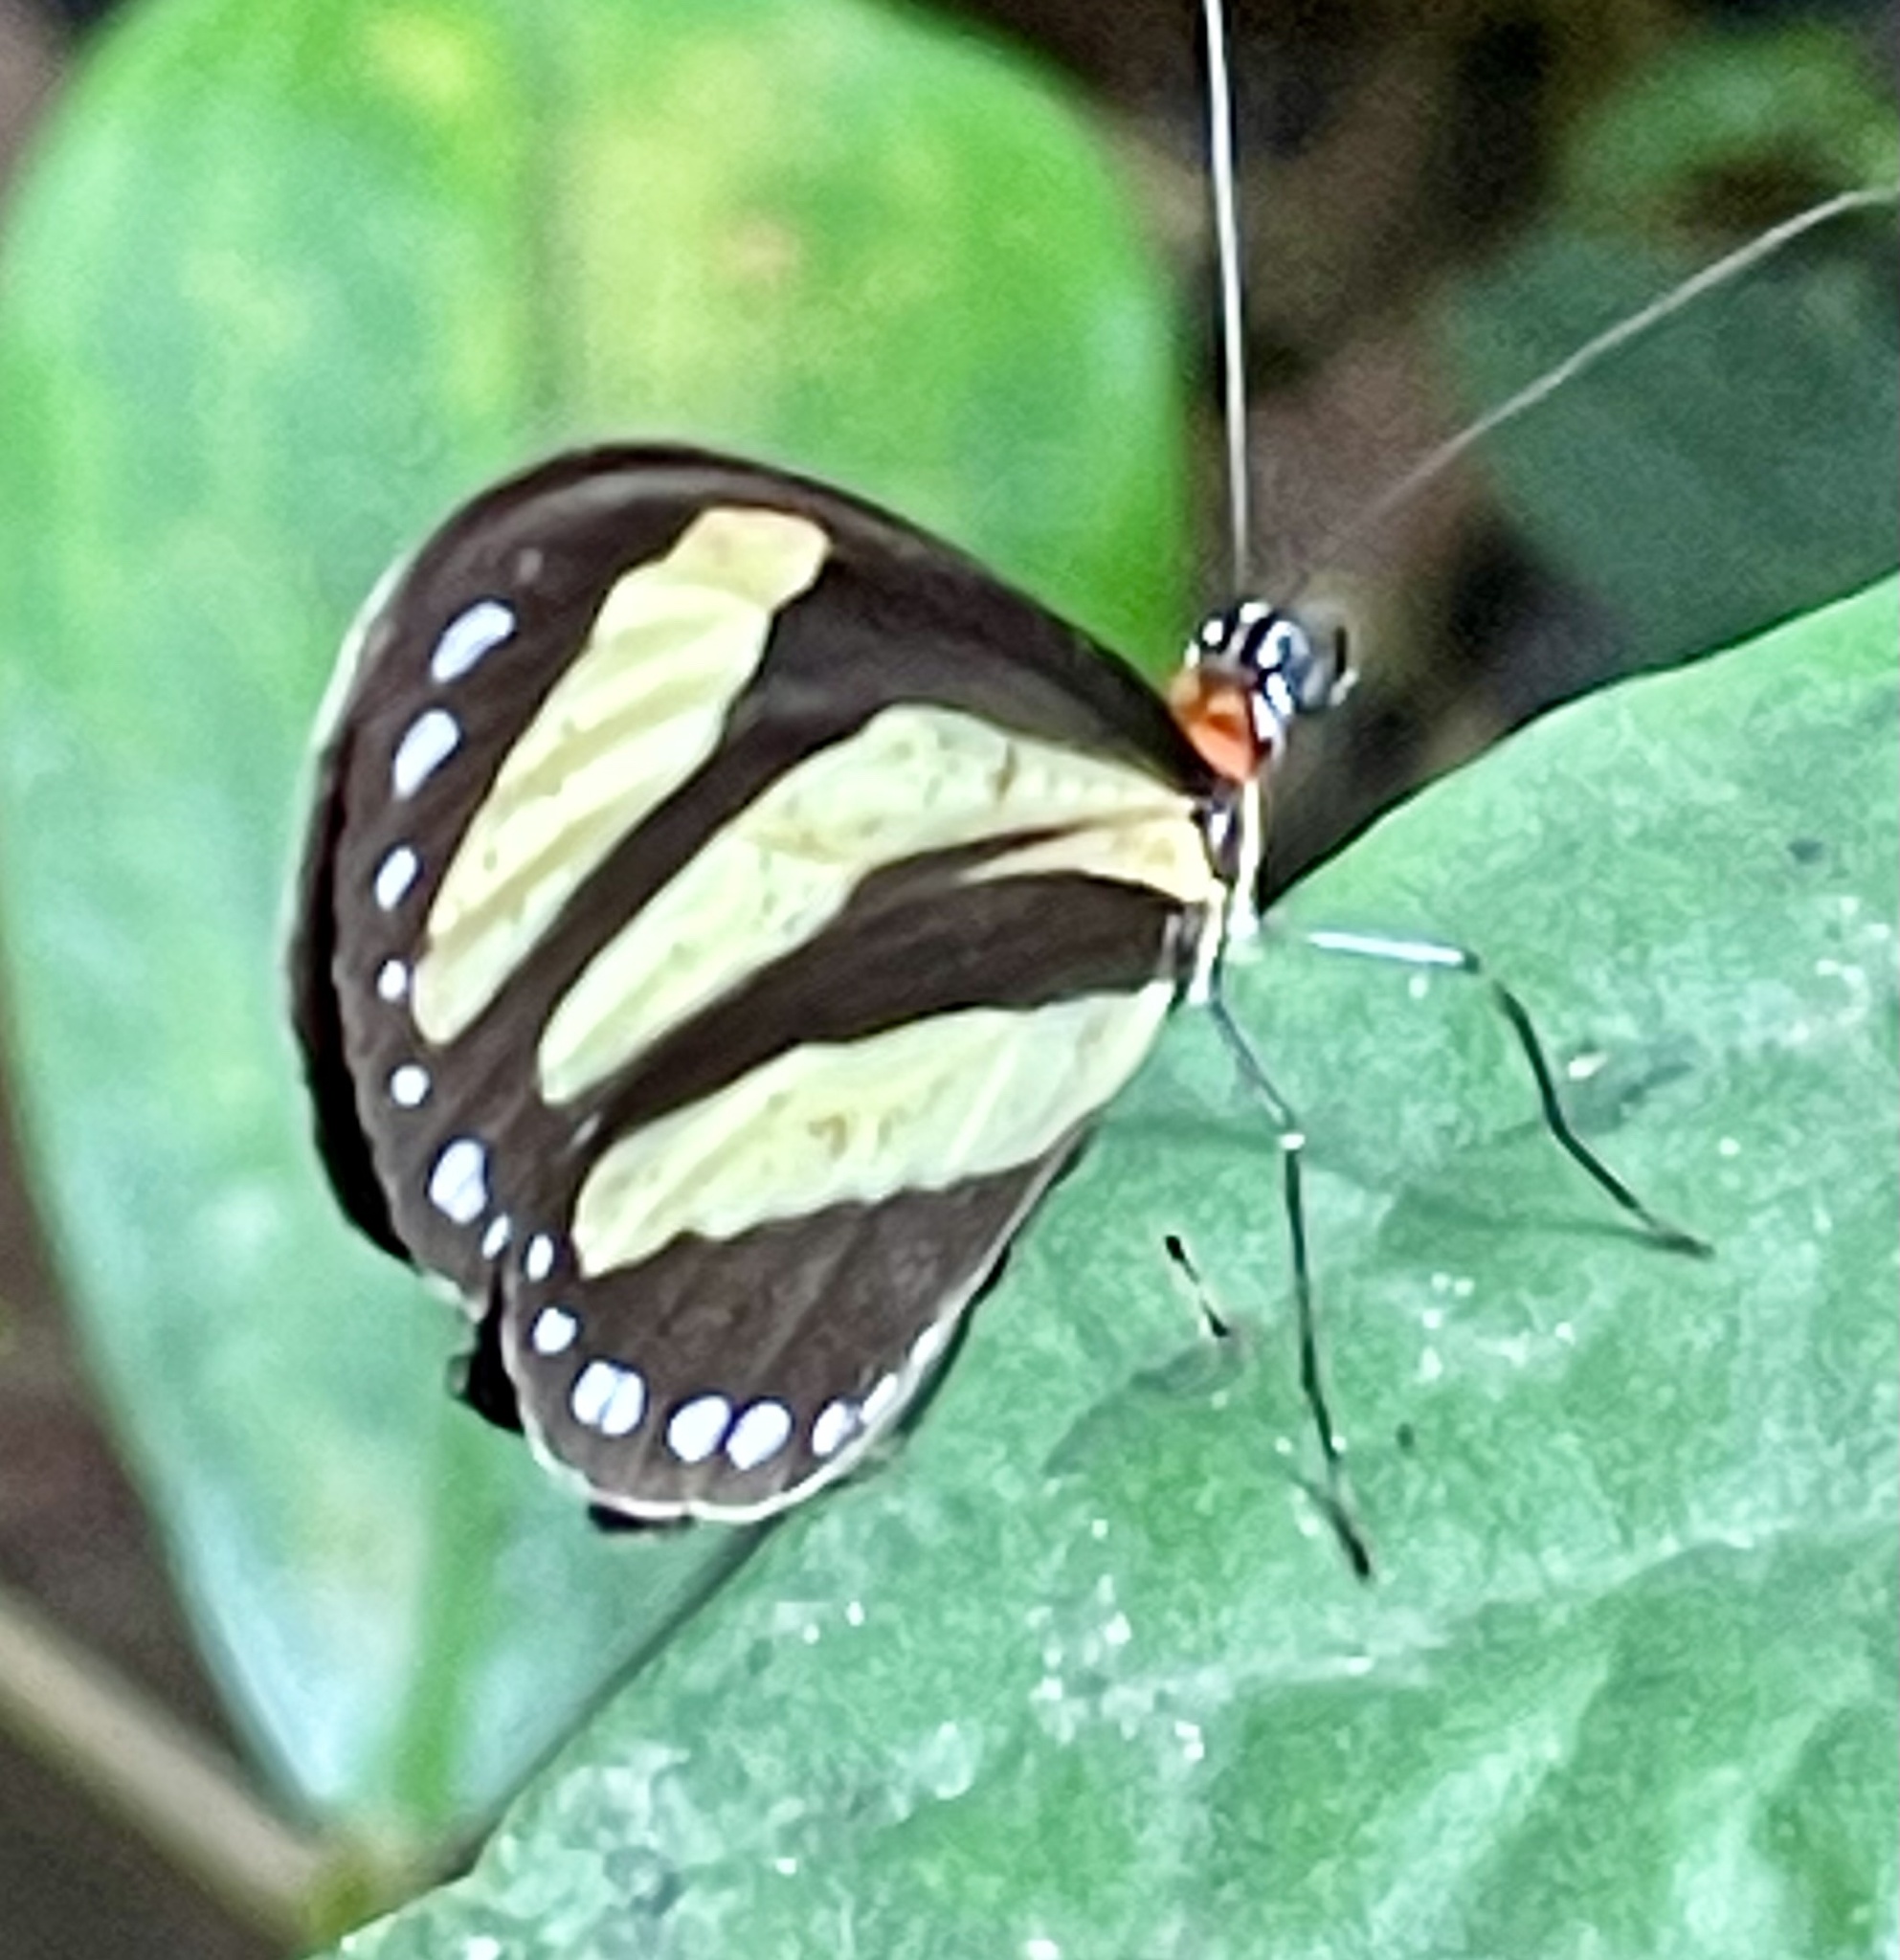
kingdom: Animalia
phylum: Arthropoda
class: Insecta
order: Lepidoptera
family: Nymphalidae
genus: Aeria
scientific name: Aeria eurimedia
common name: Banded tigerwing
